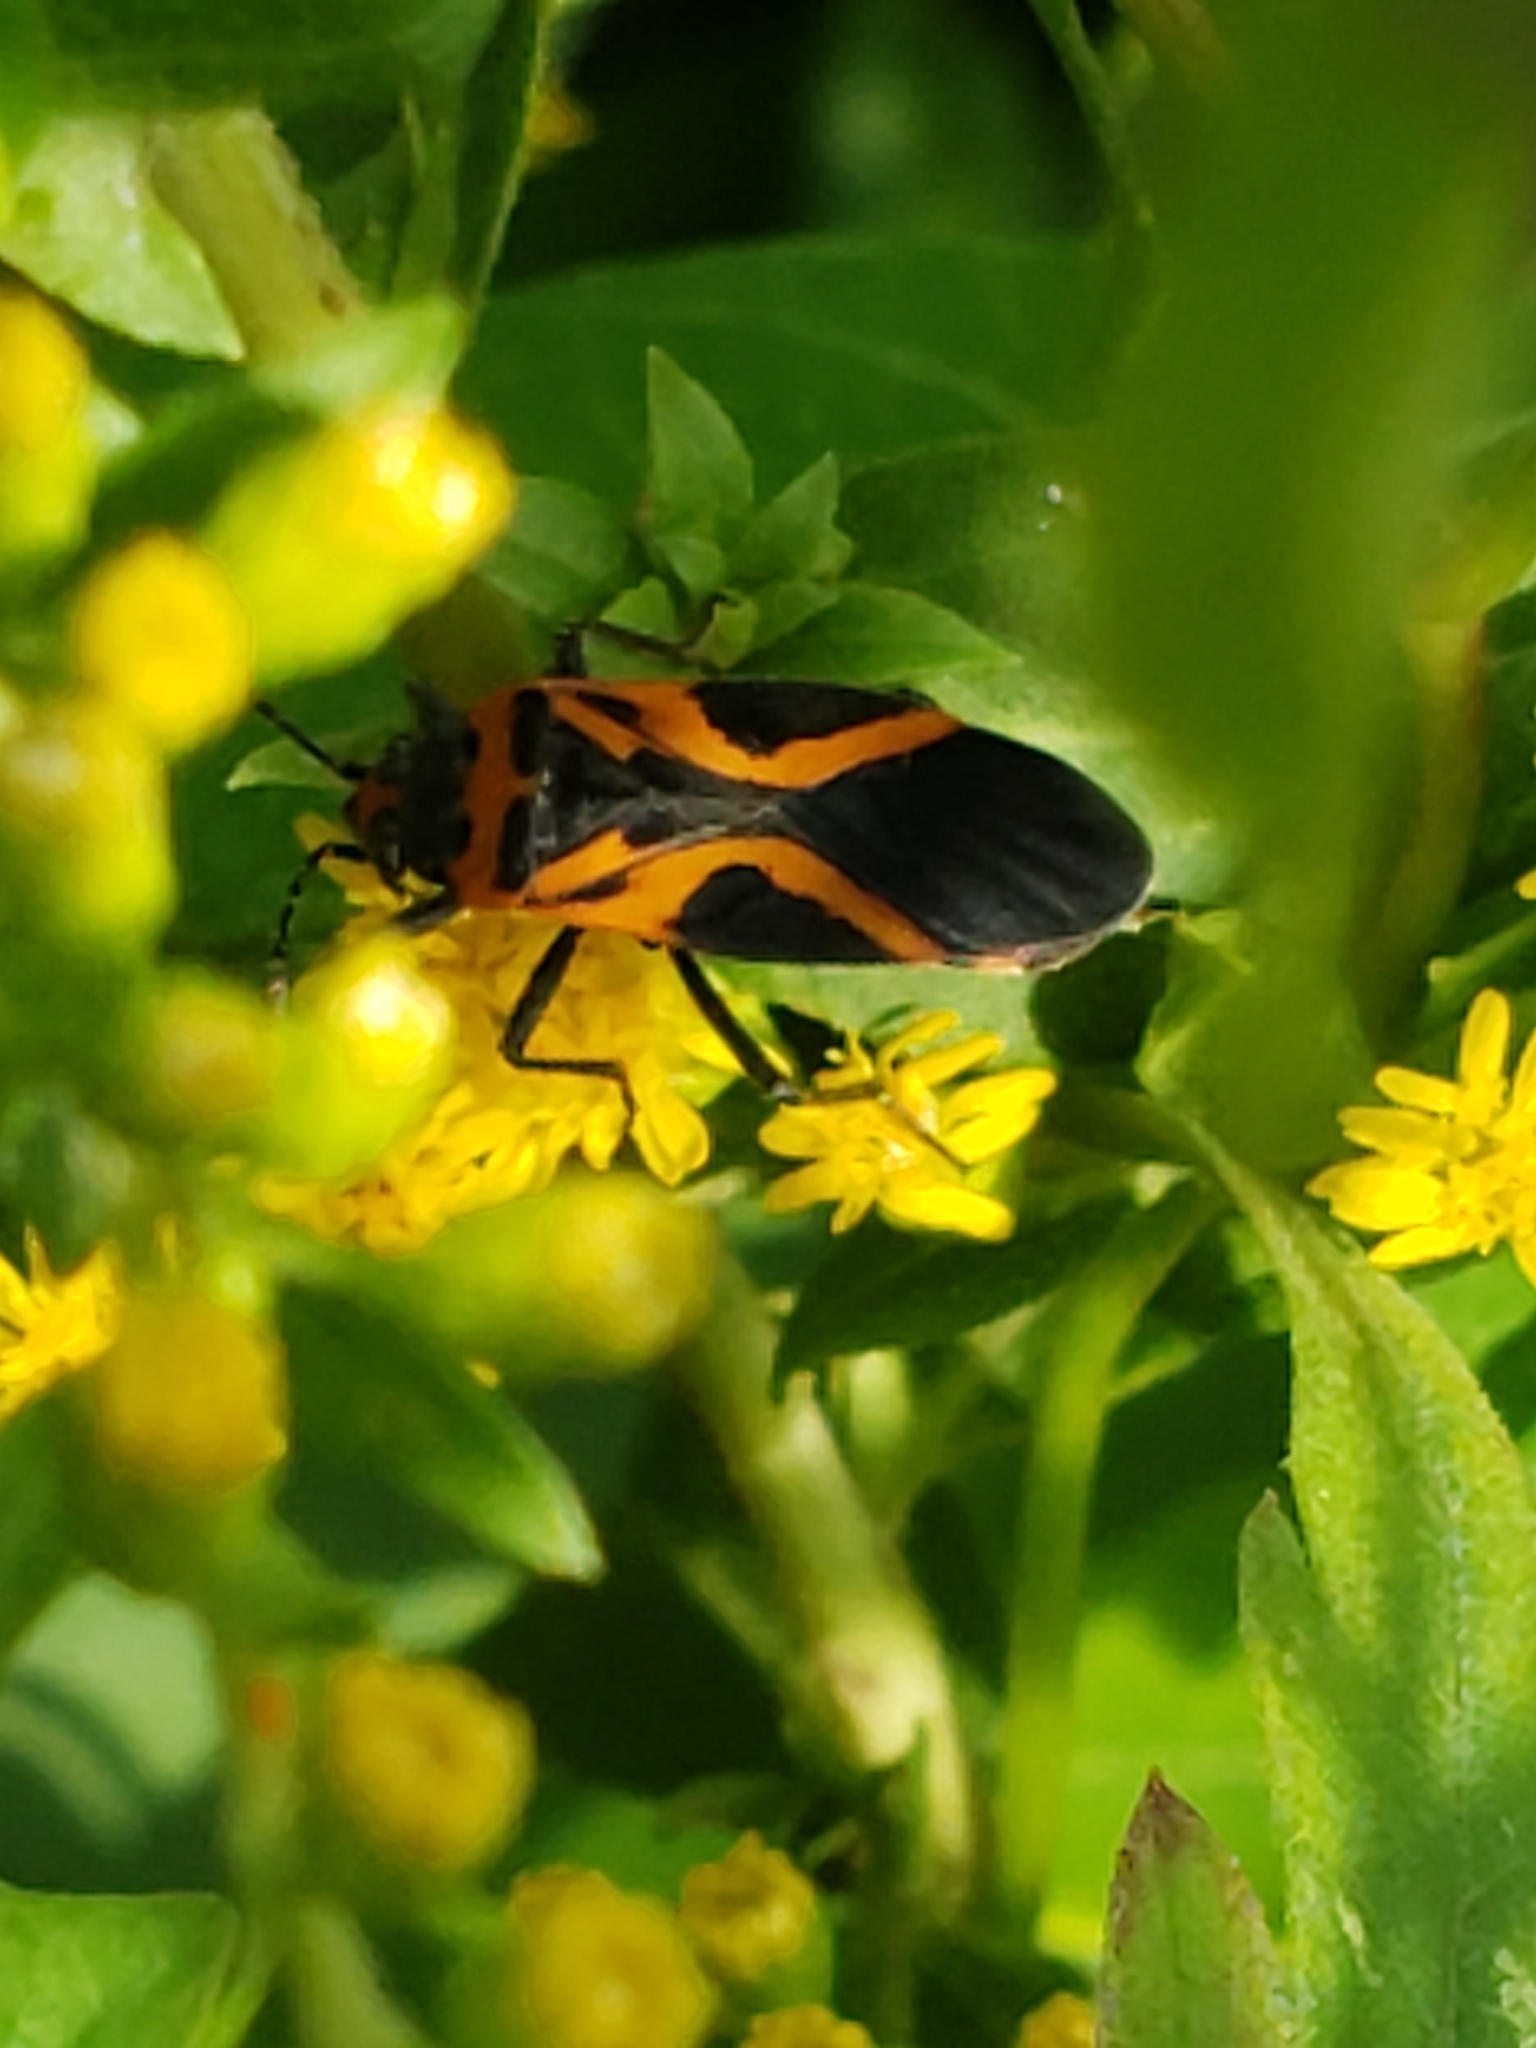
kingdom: Animalia
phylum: Arthropoda
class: Insecta
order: Hemiptera
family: Lygaeidae
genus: Lygaeus
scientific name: Lygaeus turcicus
